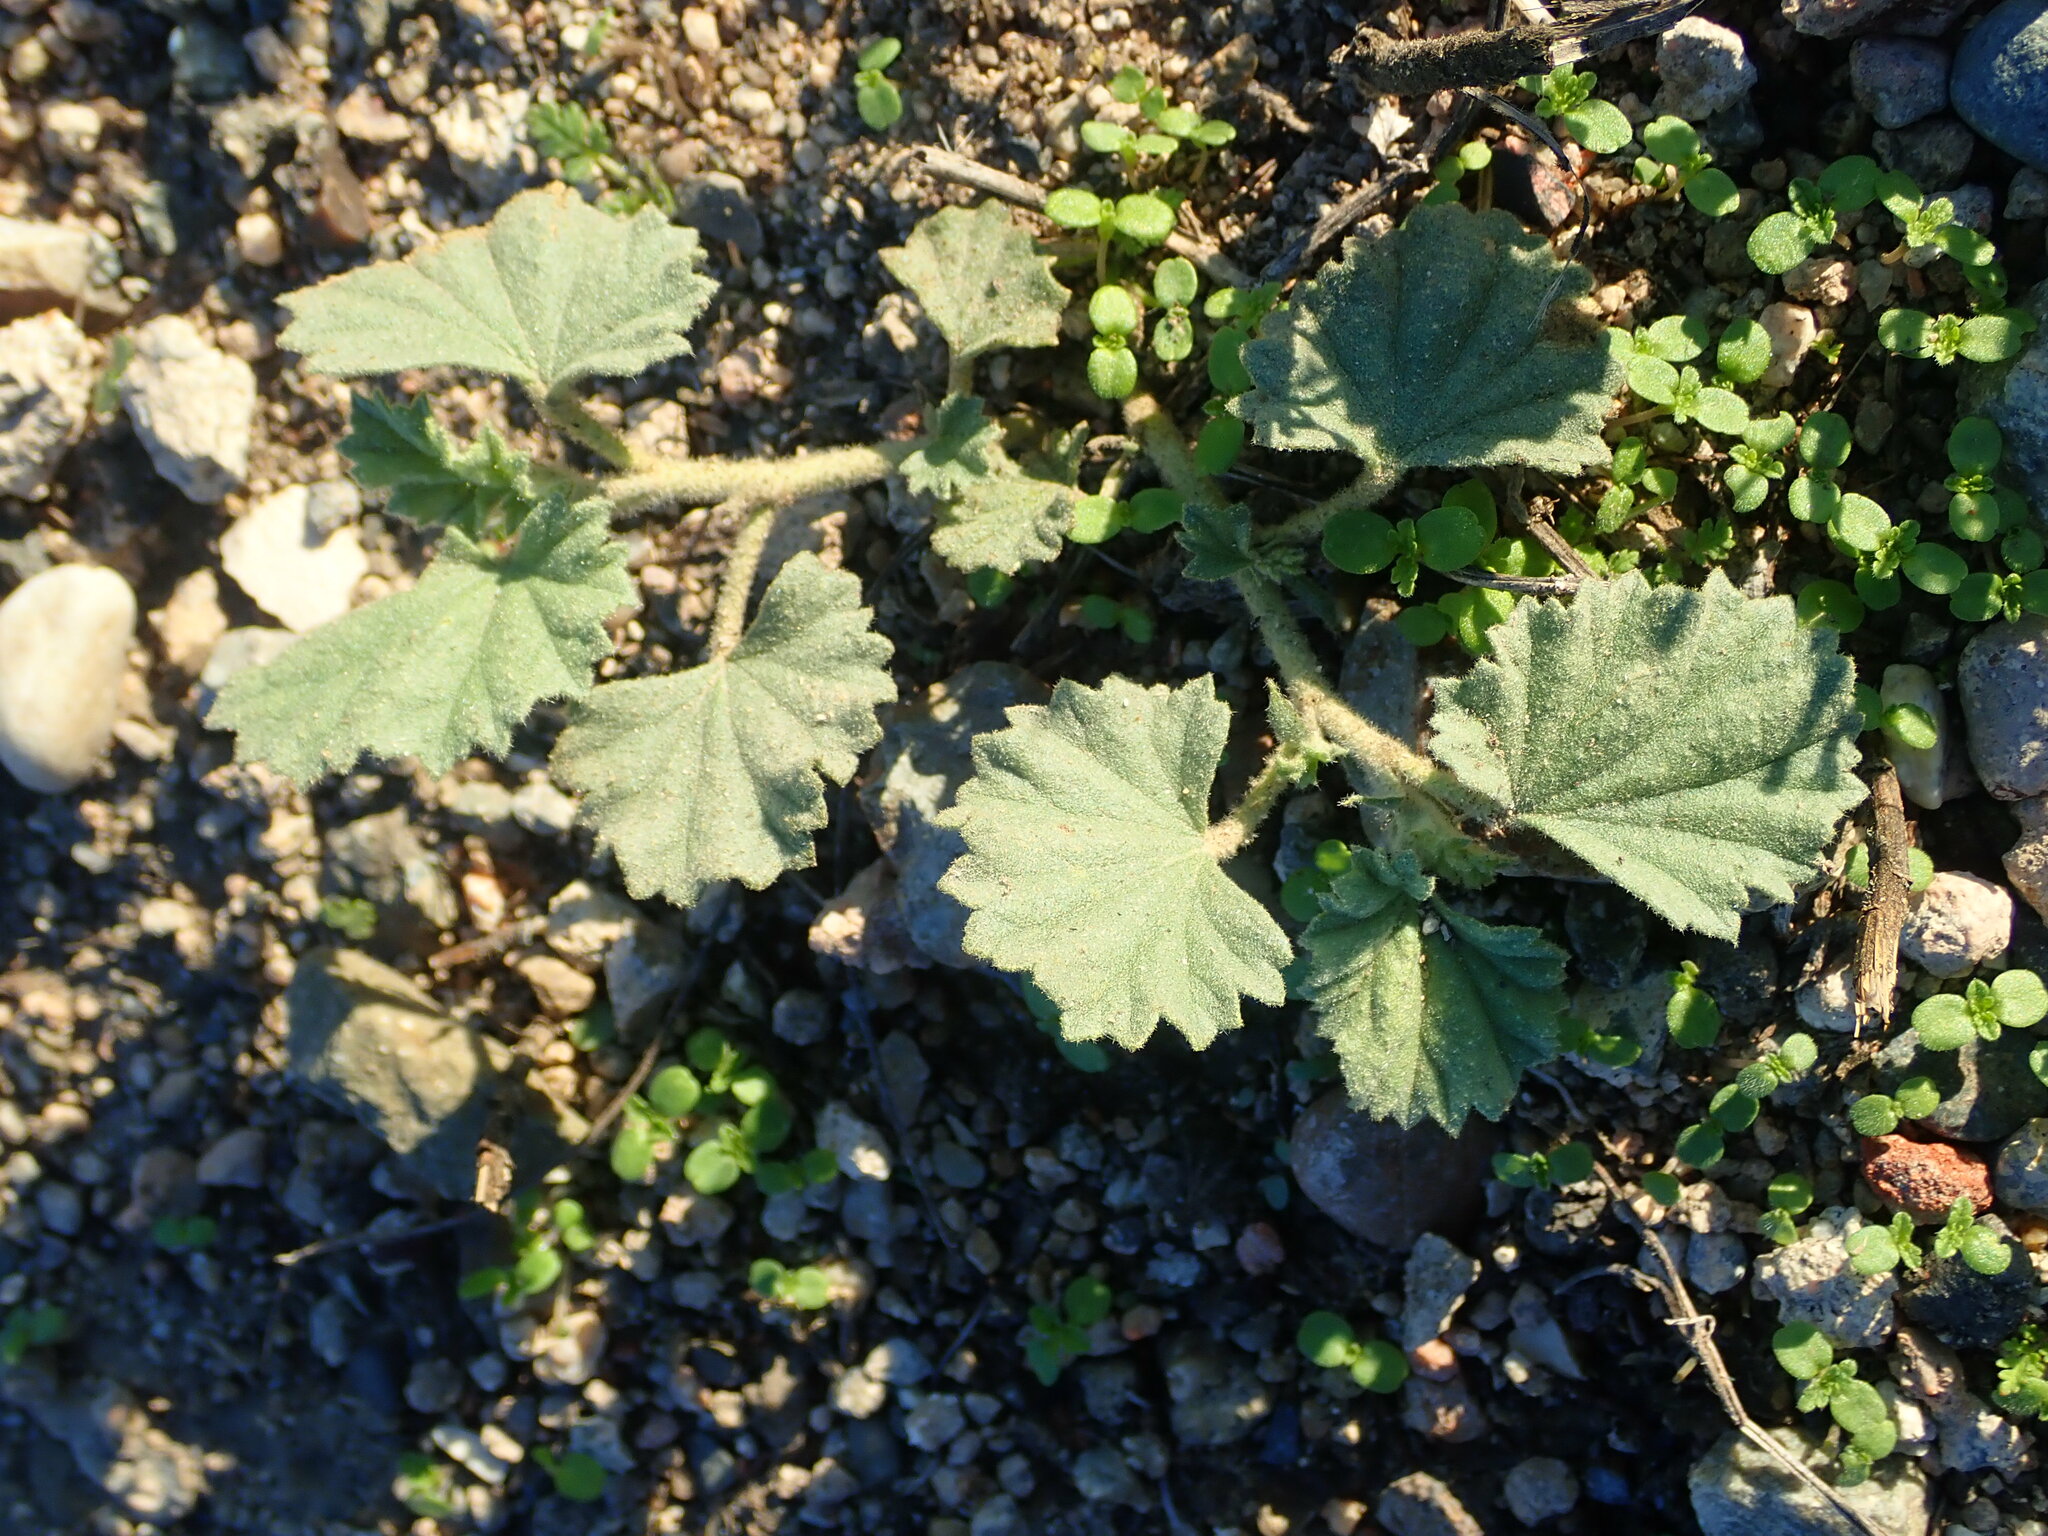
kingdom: Plantae
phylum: Tracheophyta
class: Magnoliopsida
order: Malvales
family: Malvaceae
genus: Malvella
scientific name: Malvella leprosa
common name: Alkali-mallow
